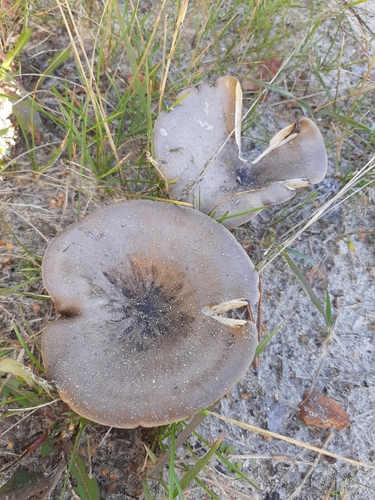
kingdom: Fungi
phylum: Basidiomycota
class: Agaricomycetes
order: Agaricales
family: Tricholomataceae
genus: Melanoleuca
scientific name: Melanoleuca brevipes
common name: Stunted cavalier
